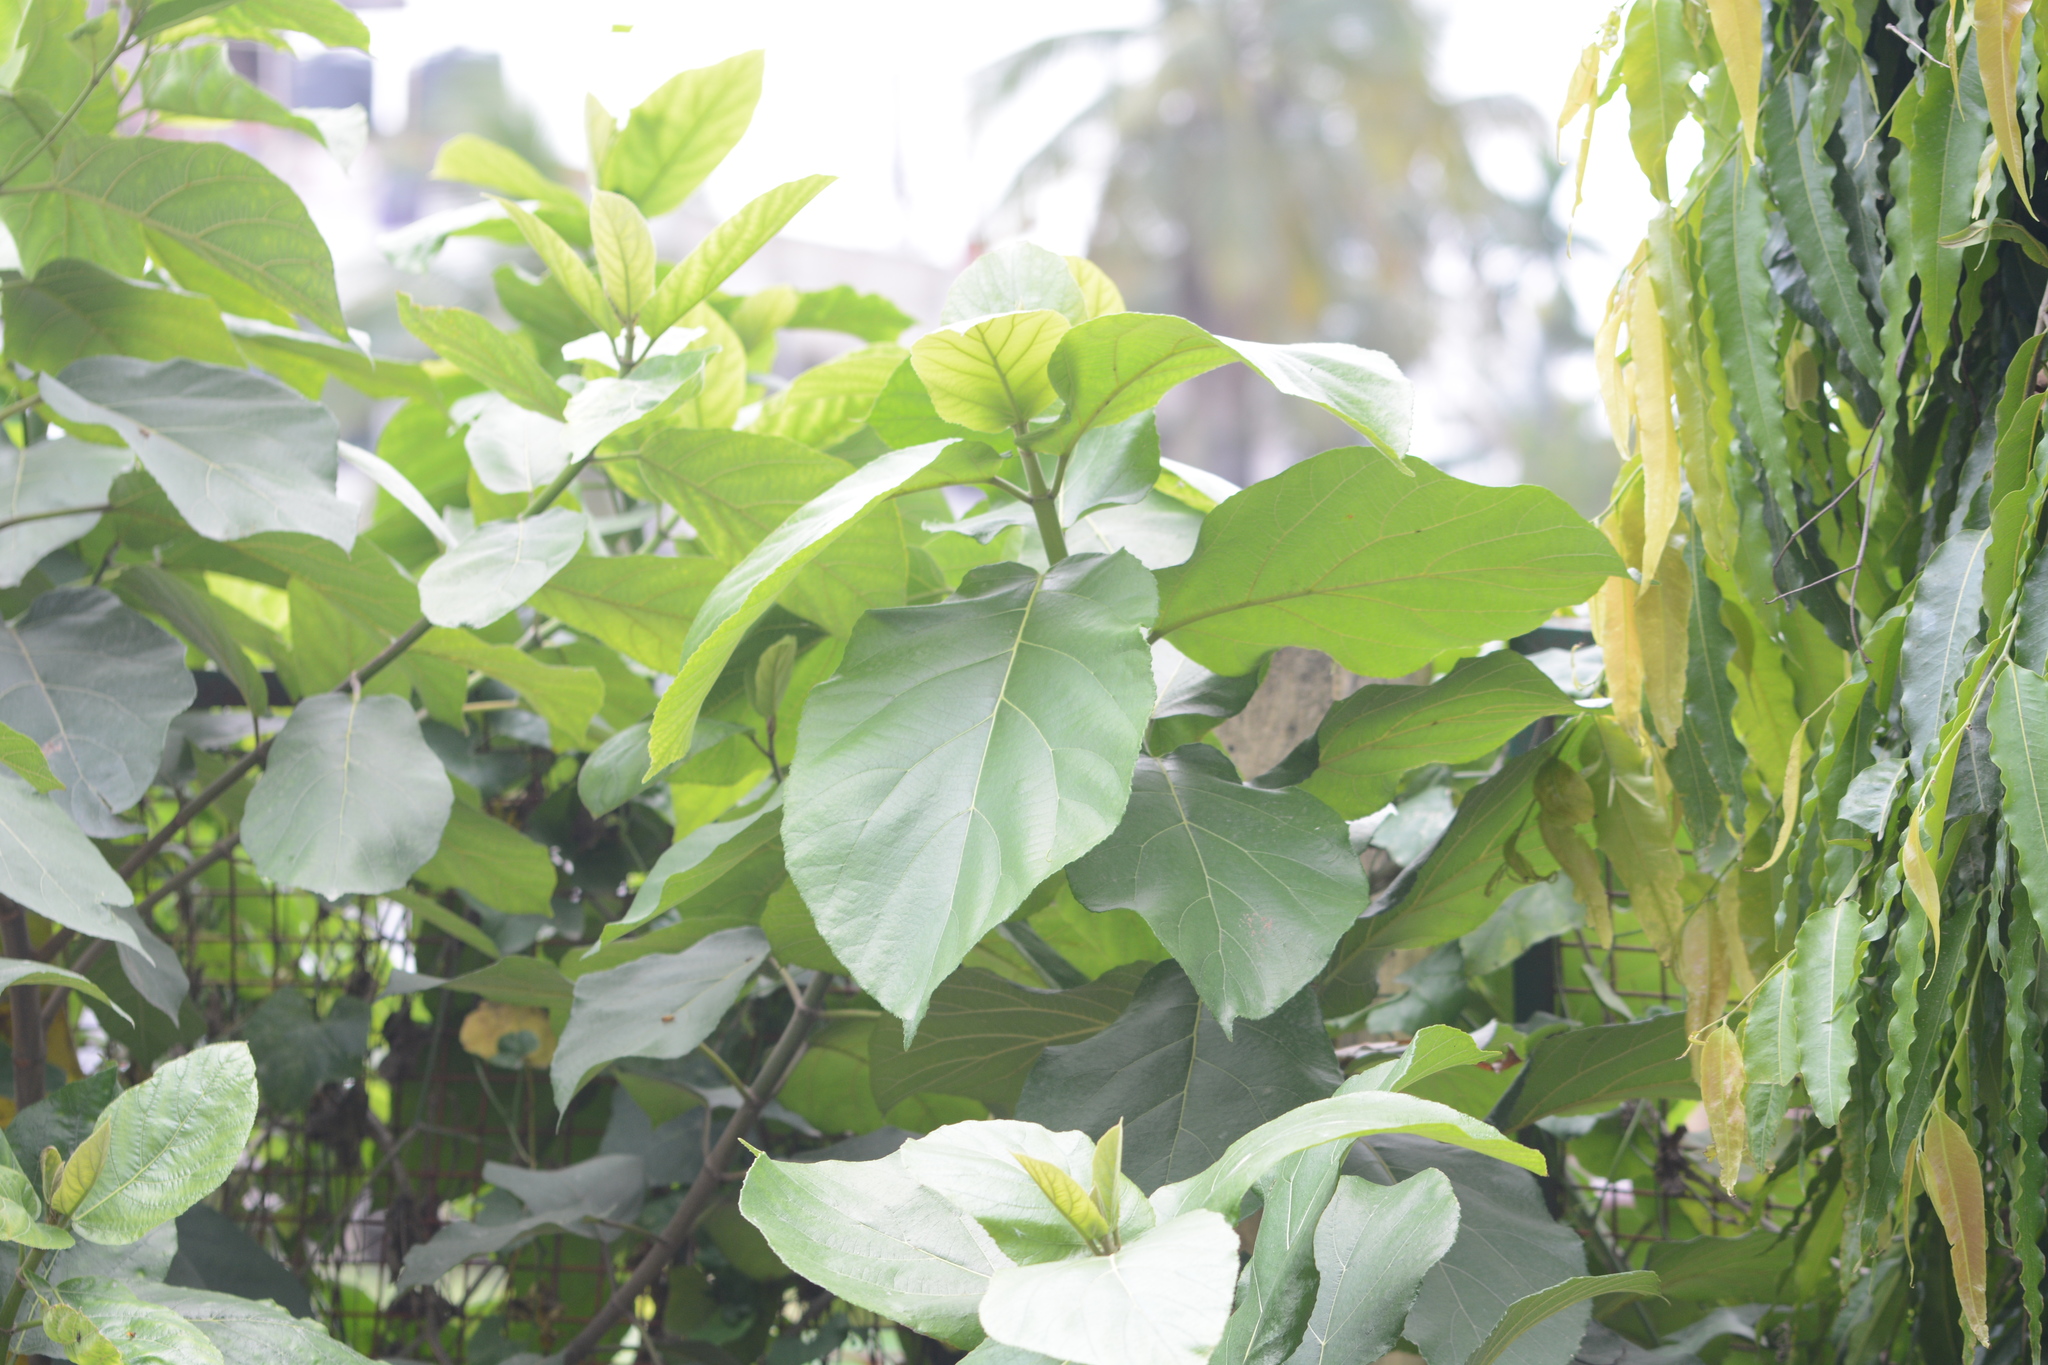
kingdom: Plantae
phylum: Tracheophyta
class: Magnoliopsida
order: Rosales
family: Moraceae
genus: Ficus
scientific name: Ficus hispida
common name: Hairy fig
